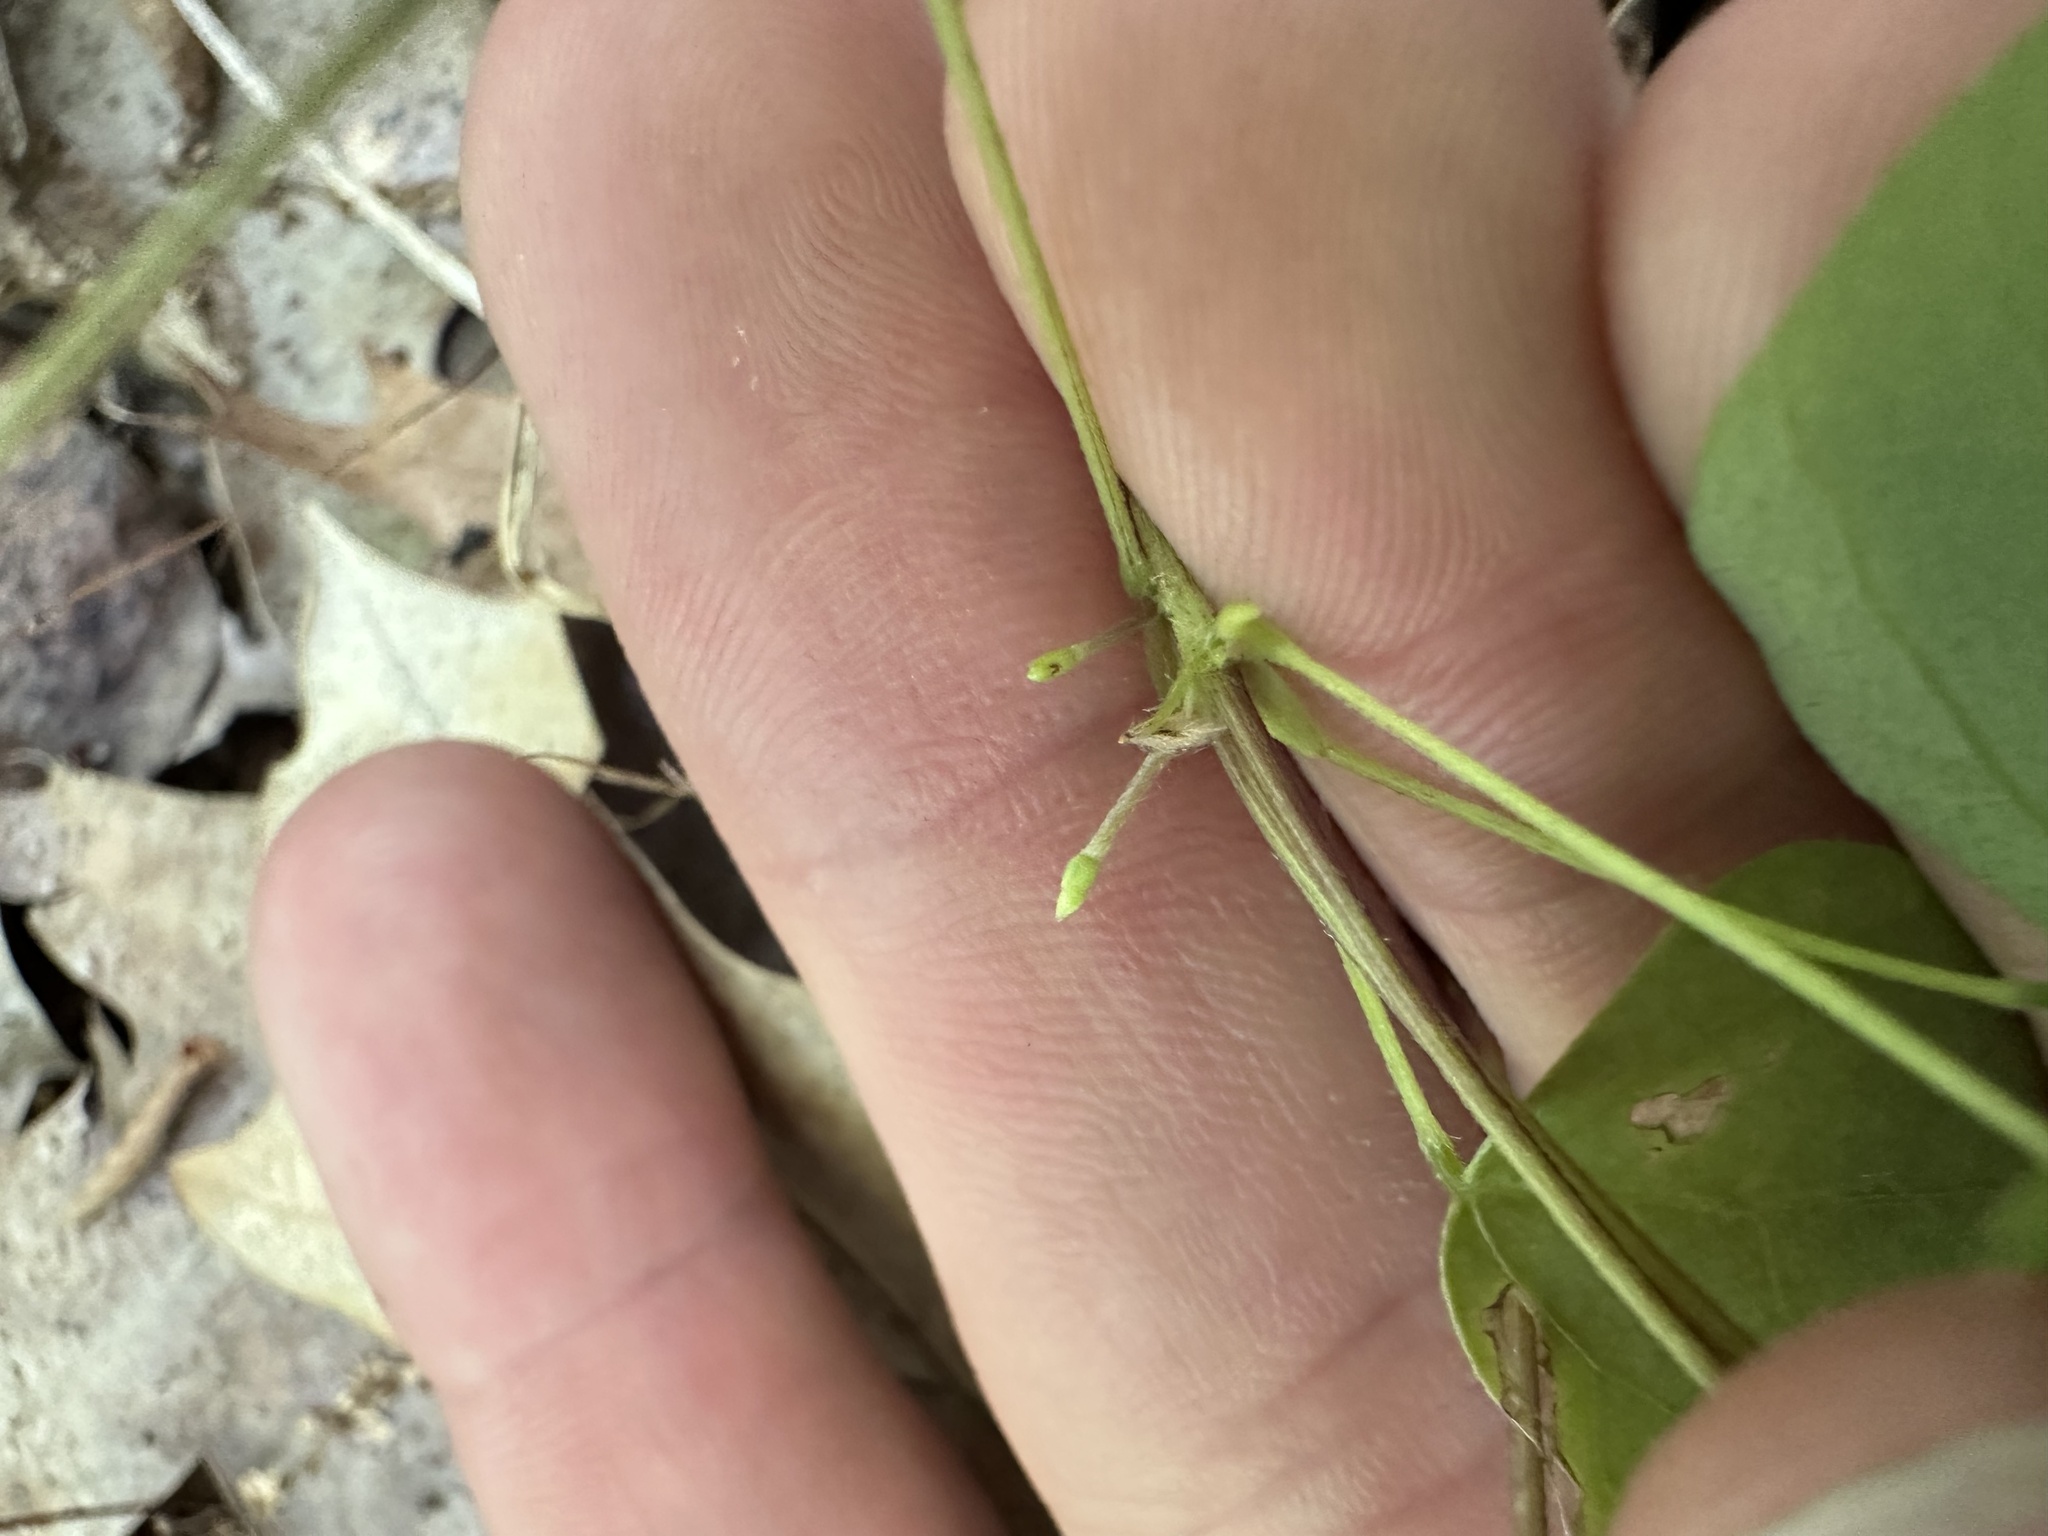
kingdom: Plantae
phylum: Tracheophyta
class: Magnoliopsida
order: Fabales
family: Fabaceae
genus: Amphicarpaea
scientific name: Amphicarpaea bracteata
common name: American hog peanut
